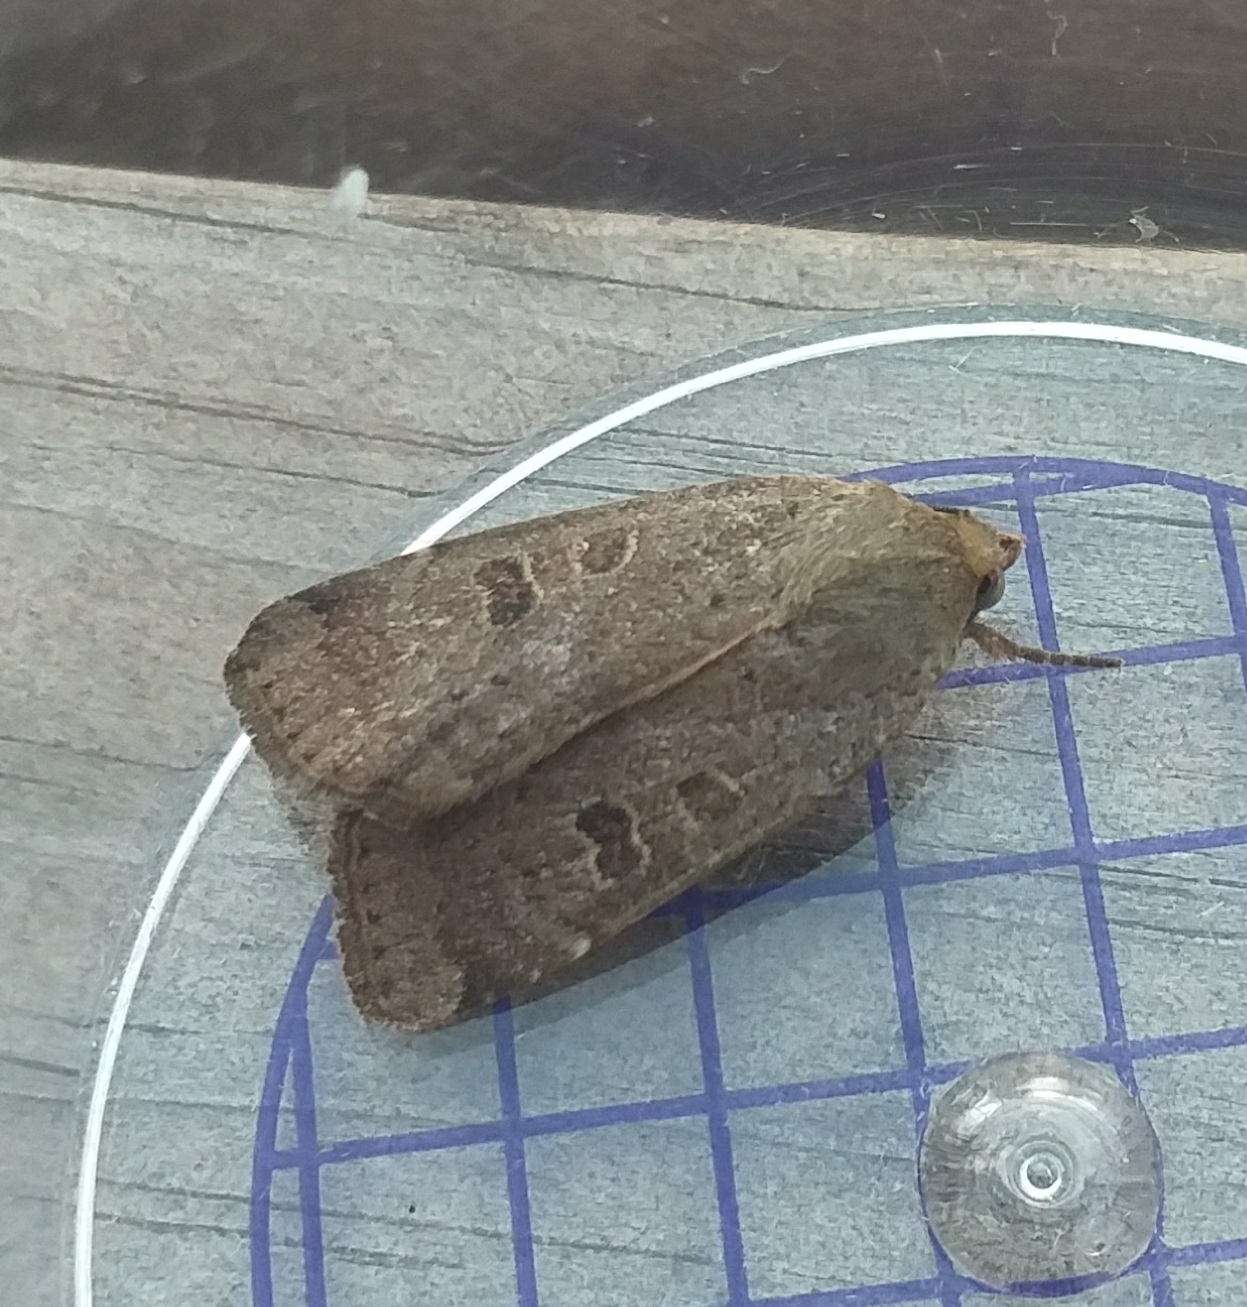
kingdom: Animalia
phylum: Arthropoda
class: Insecta
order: Lepidoptera
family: Noctuidae
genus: Noctua
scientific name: Noctua comes
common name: Lesser yellow underwing
